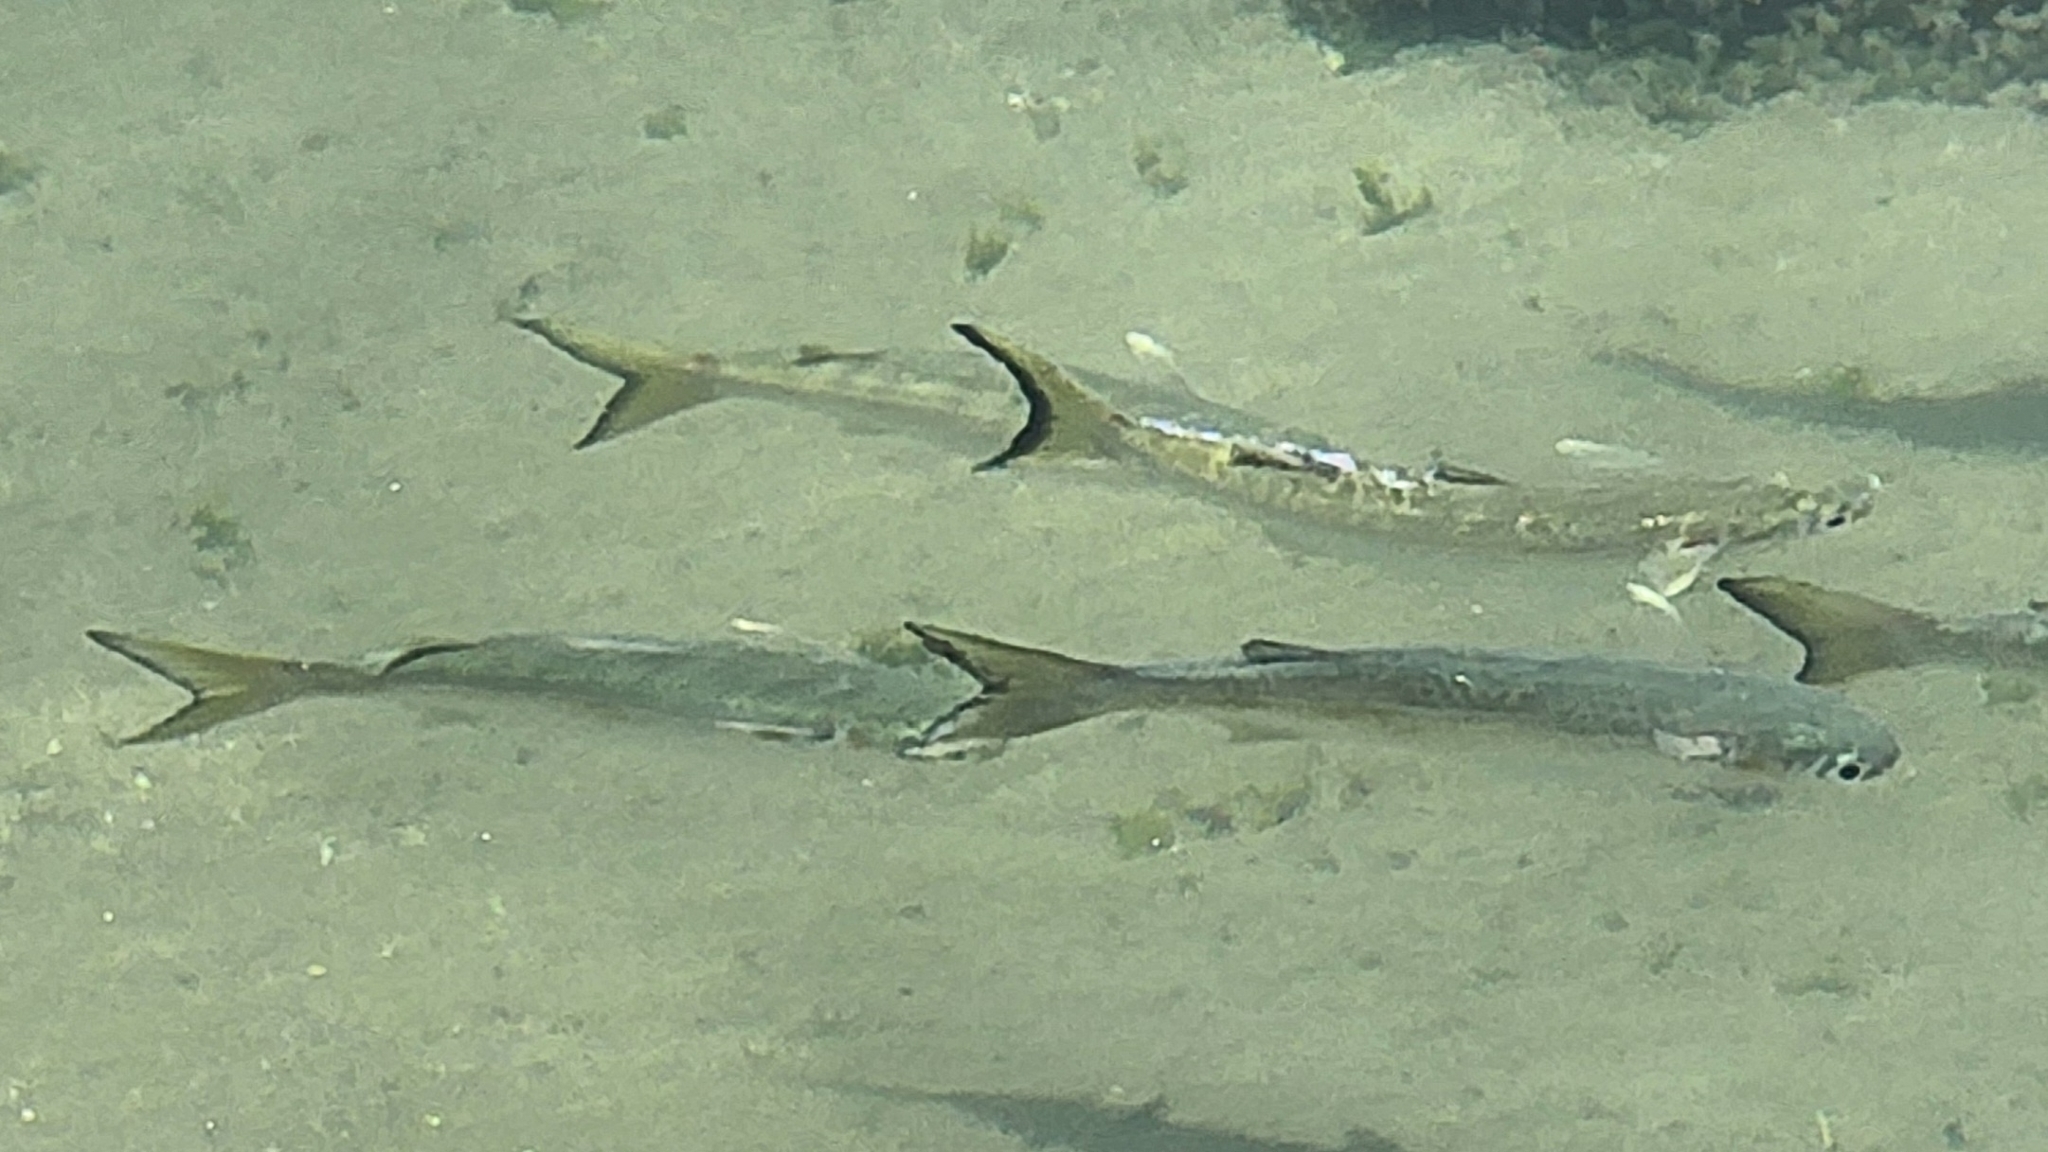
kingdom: Animalia
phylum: Chordata
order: Mugiliformes
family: Mugilidae
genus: Mugil
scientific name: Mugil cephalus
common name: Grey mullet
